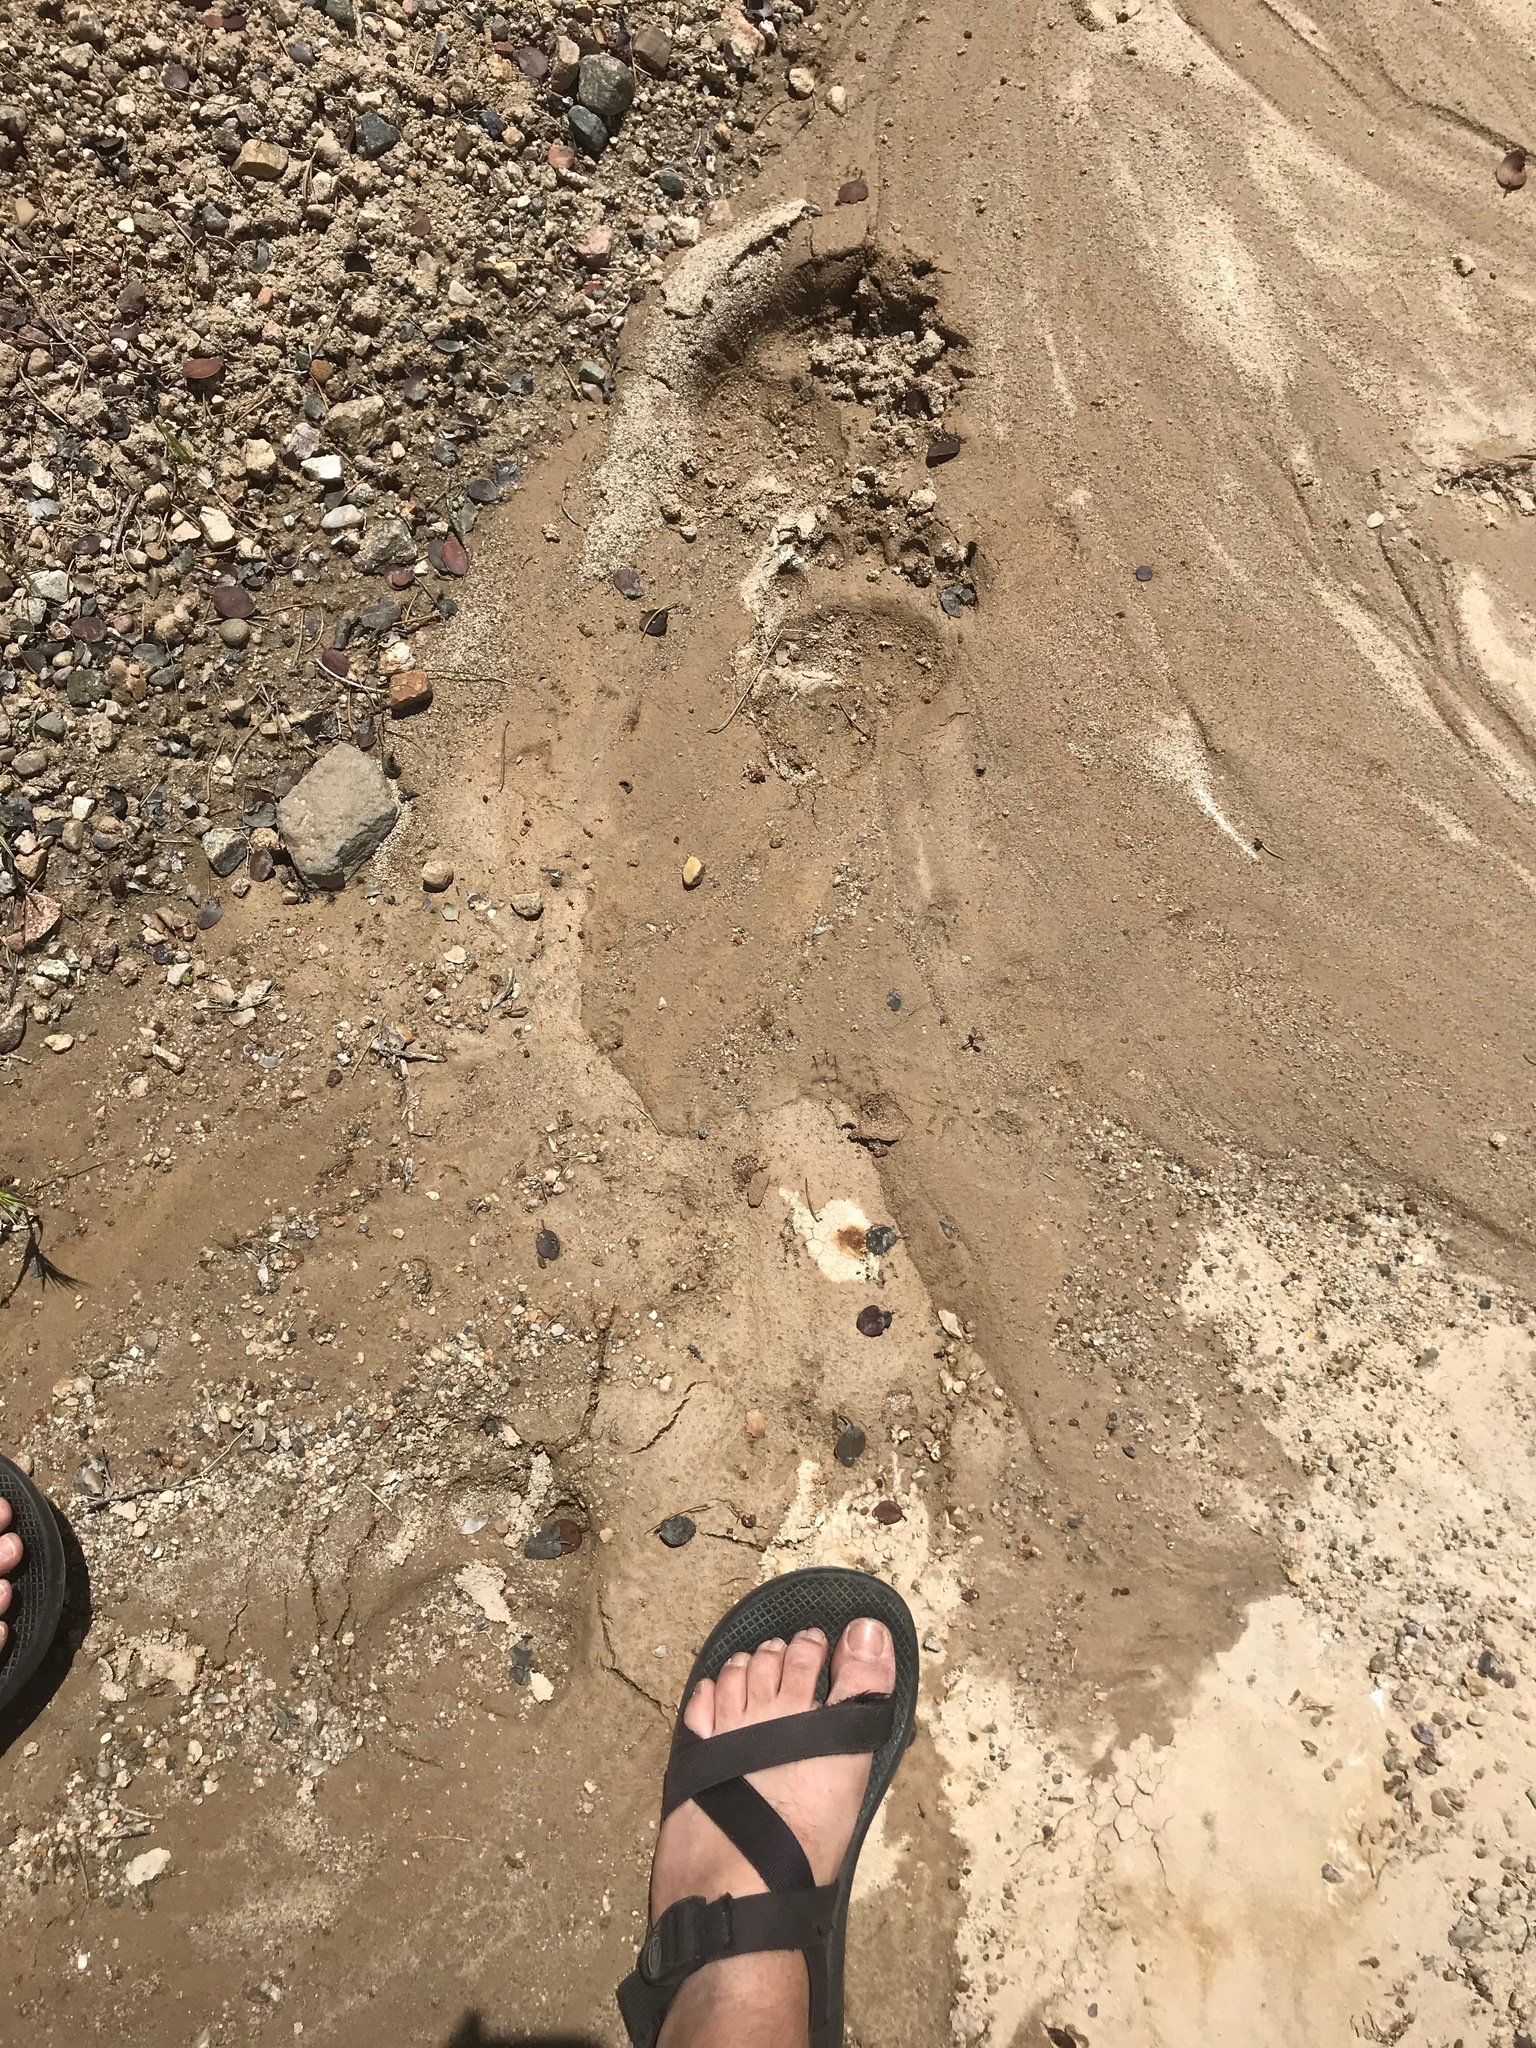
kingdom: Animalia
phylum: Chordata
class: Mammalia
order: Carnivora
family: Ursidae
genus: Ursus
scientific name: Ursus americanus
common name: American black bear
